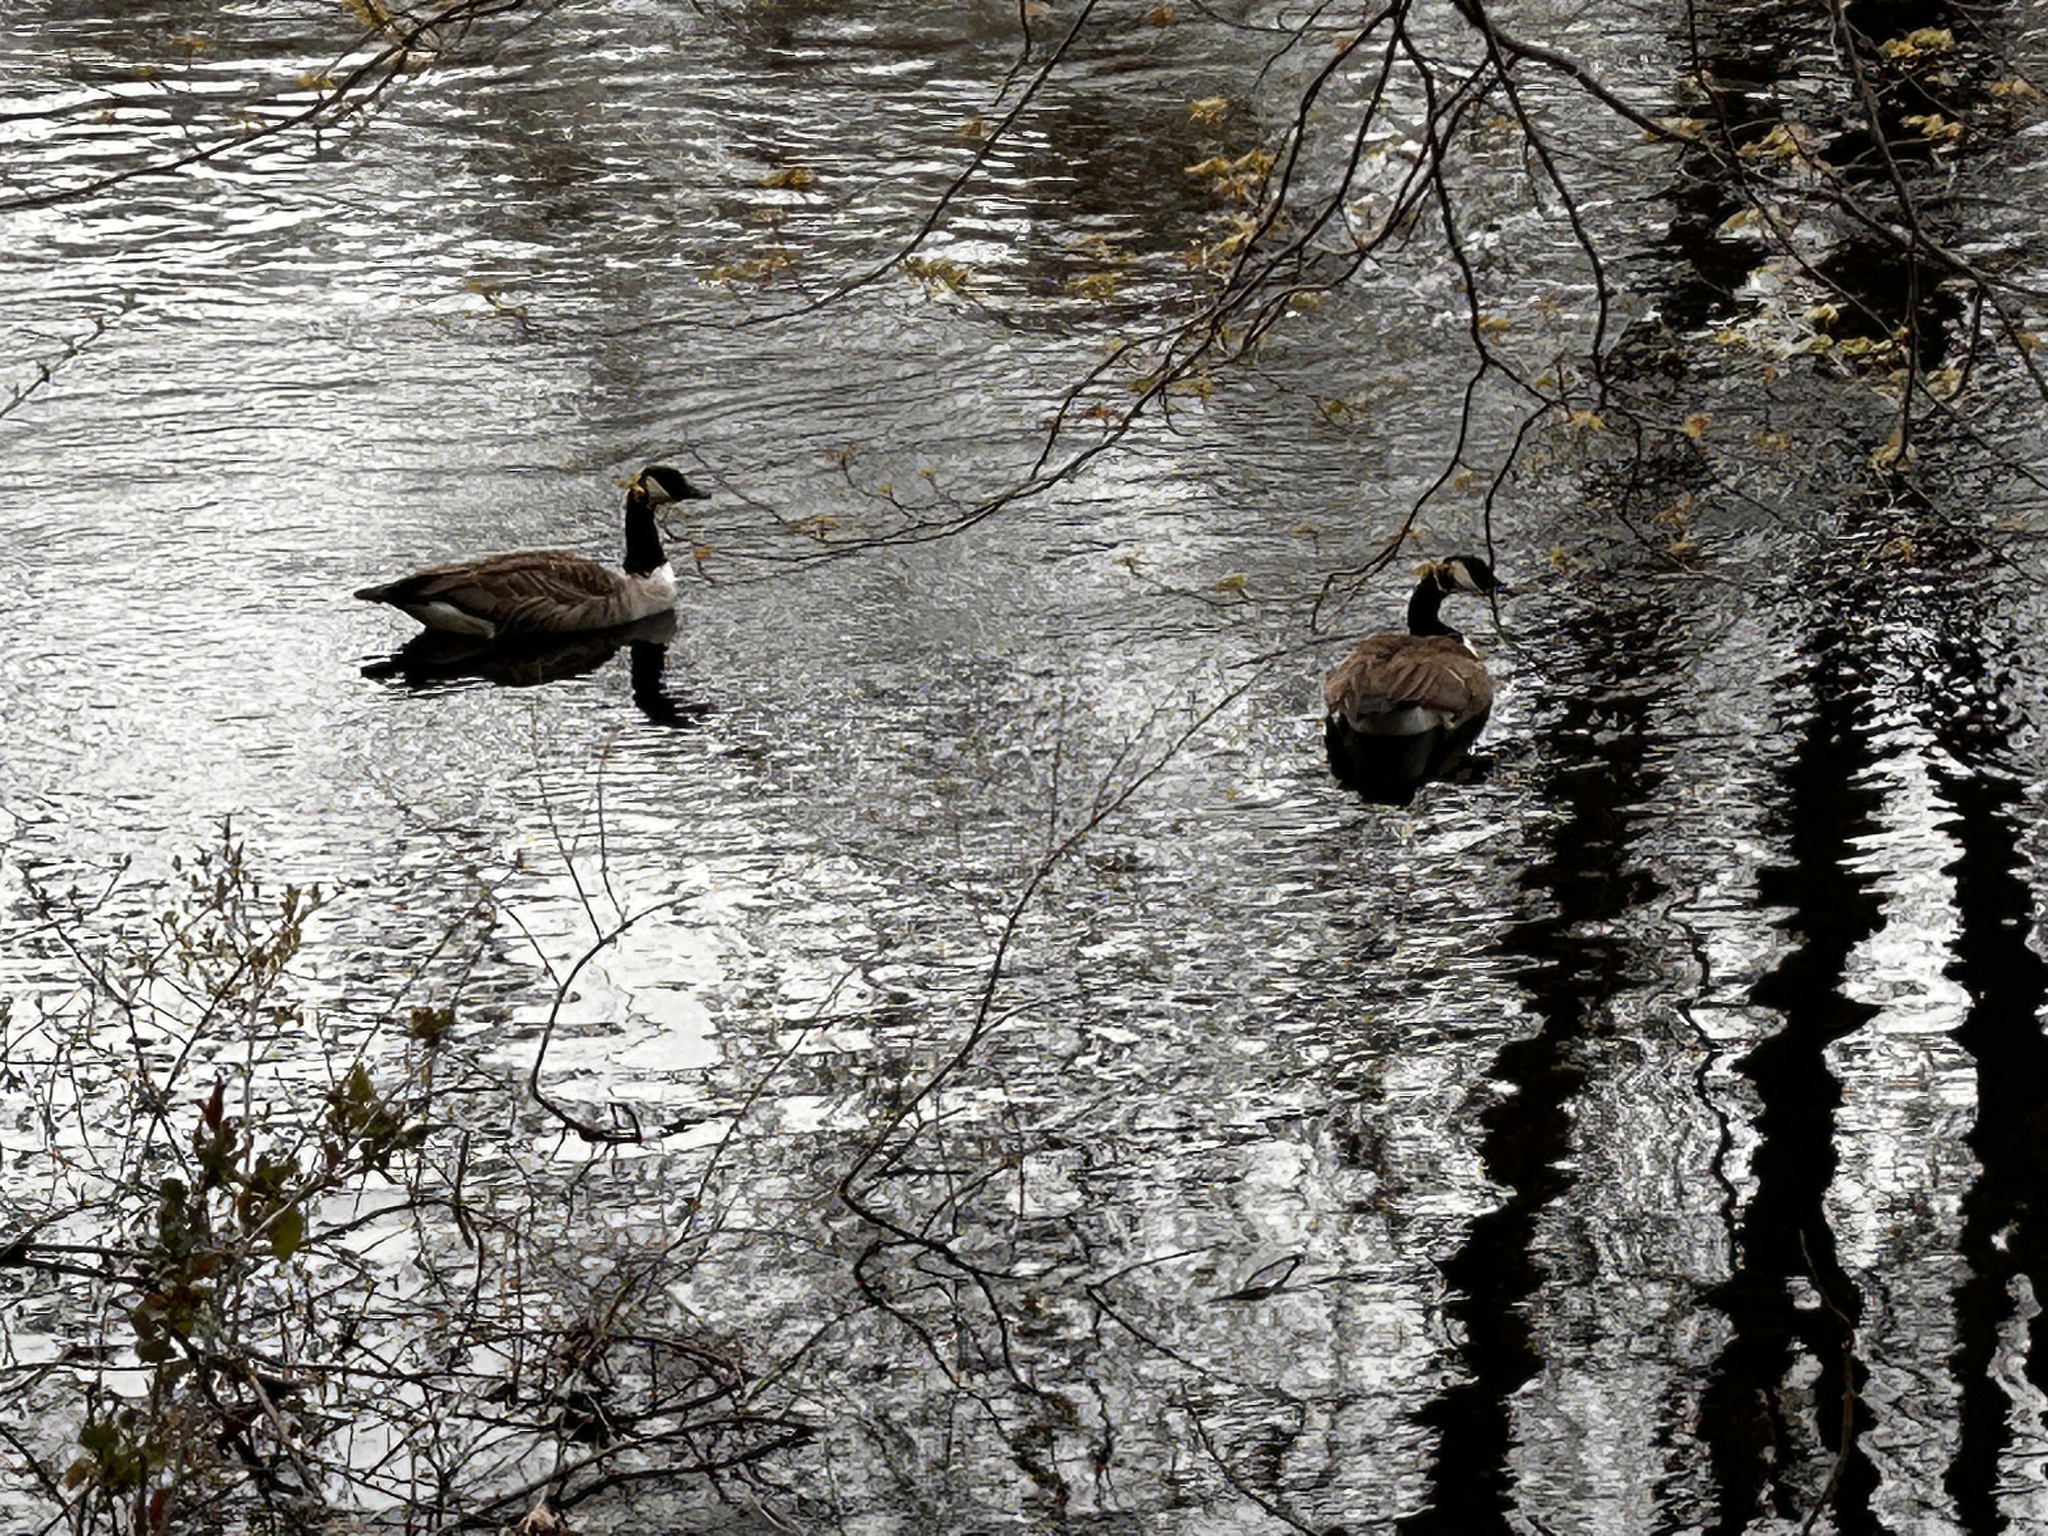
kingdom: Animalia
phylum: Chordata
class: Aves
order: Anseriformes
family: Anatidae
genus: Branta
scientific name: Branta canadensis
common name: Canada goose
